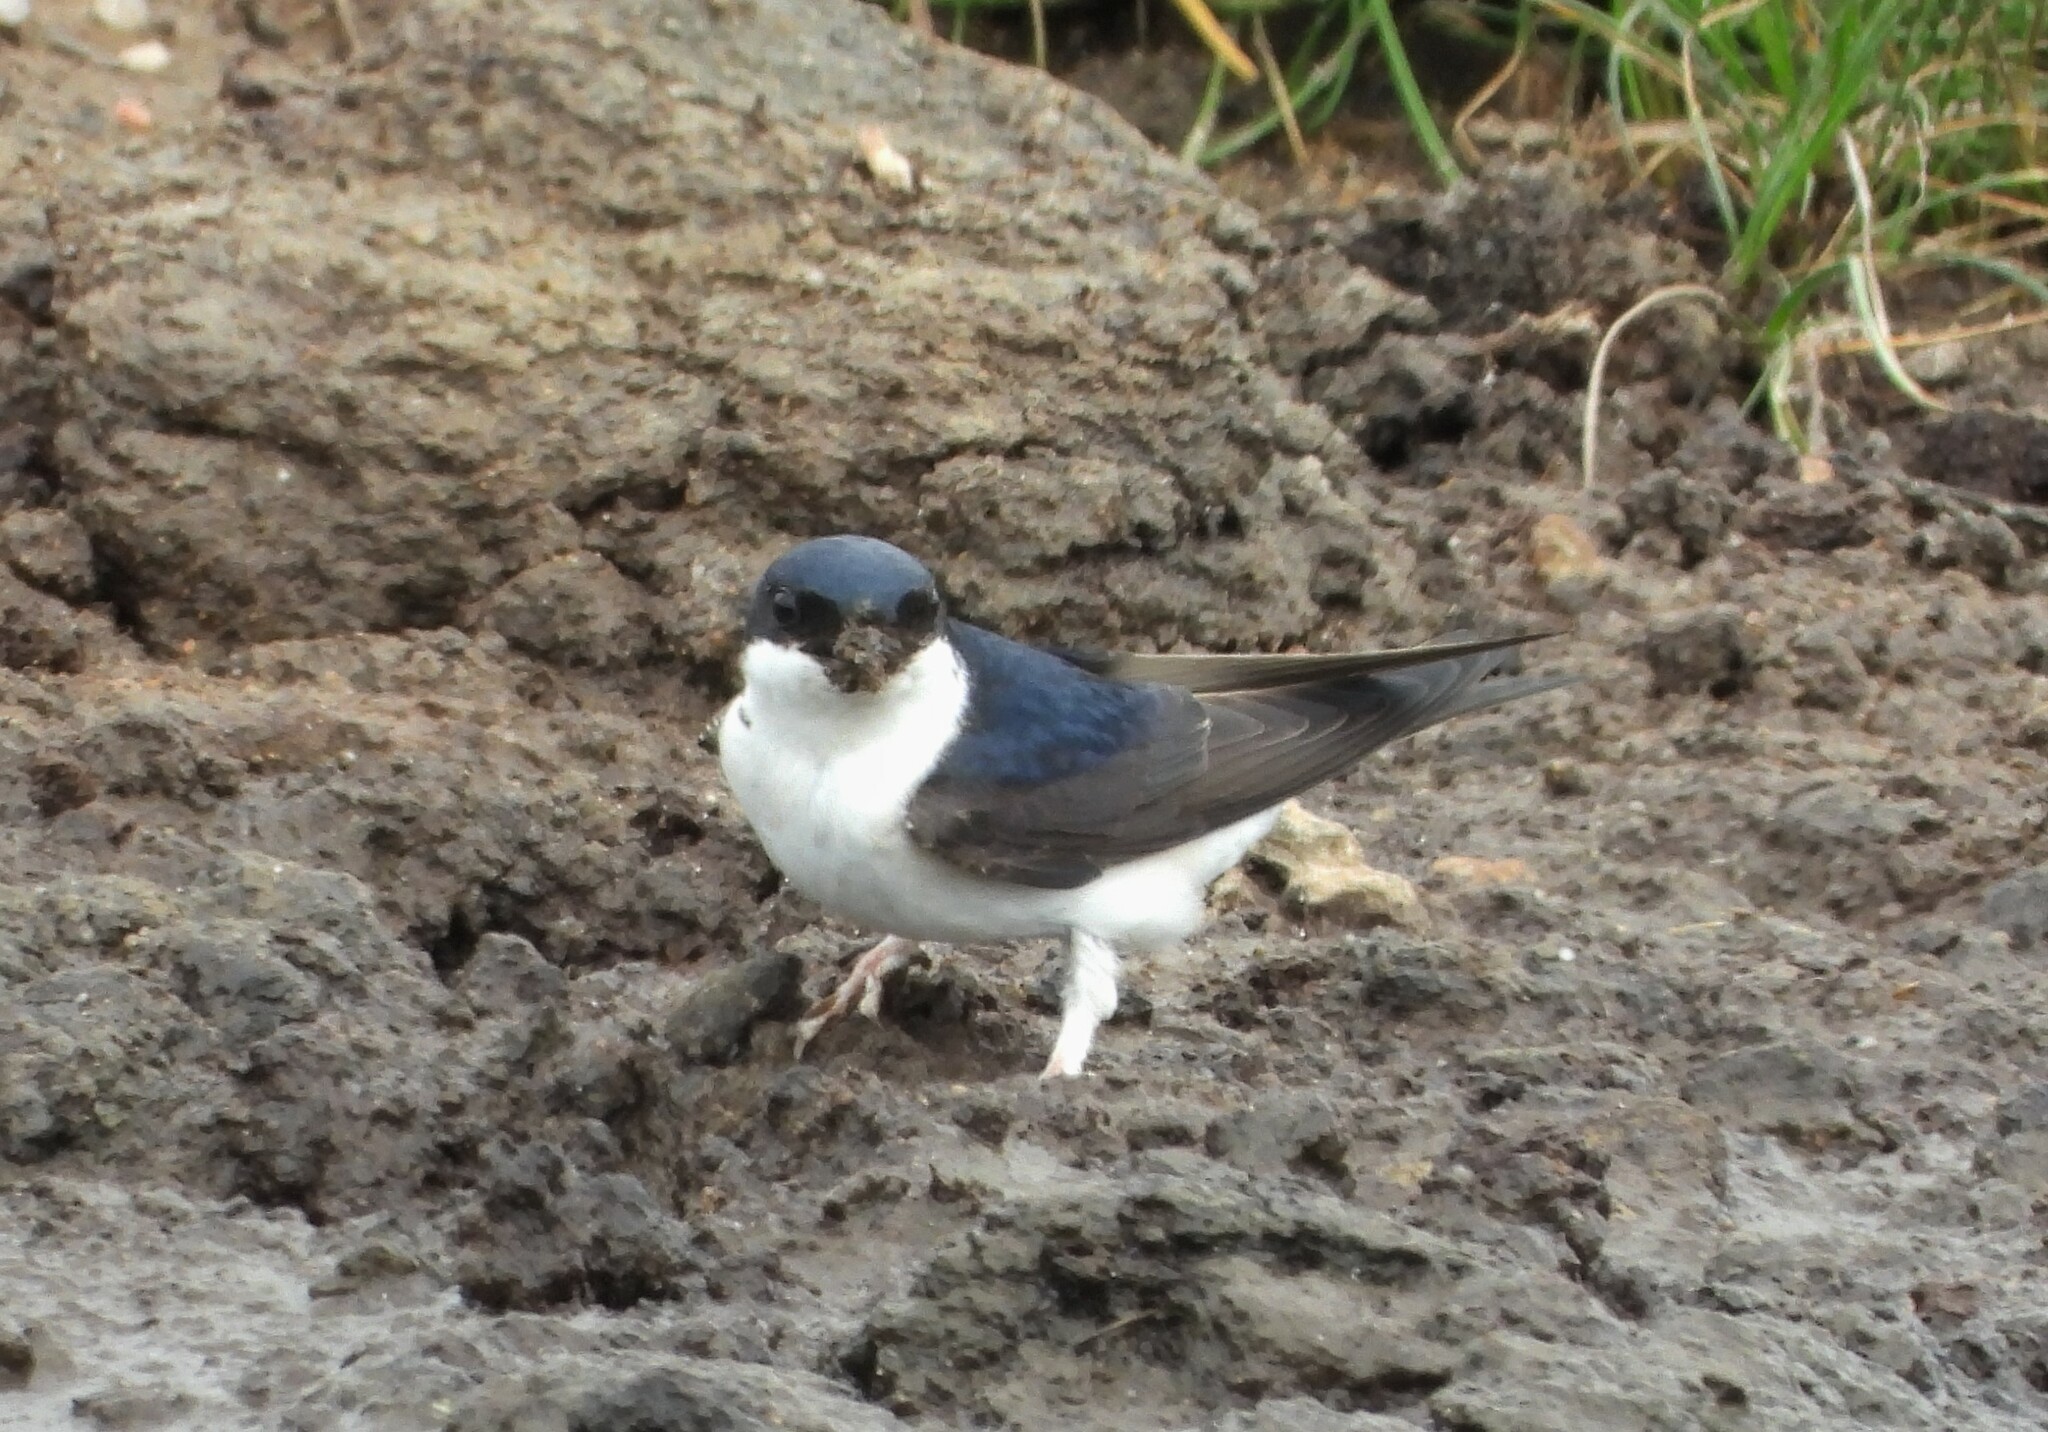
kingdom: Animalia
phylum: Chordata
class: Aves
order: Passeriformes
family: Hirundinidae
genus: Delichon
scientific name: Delichon urbicum
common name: Common house martin
